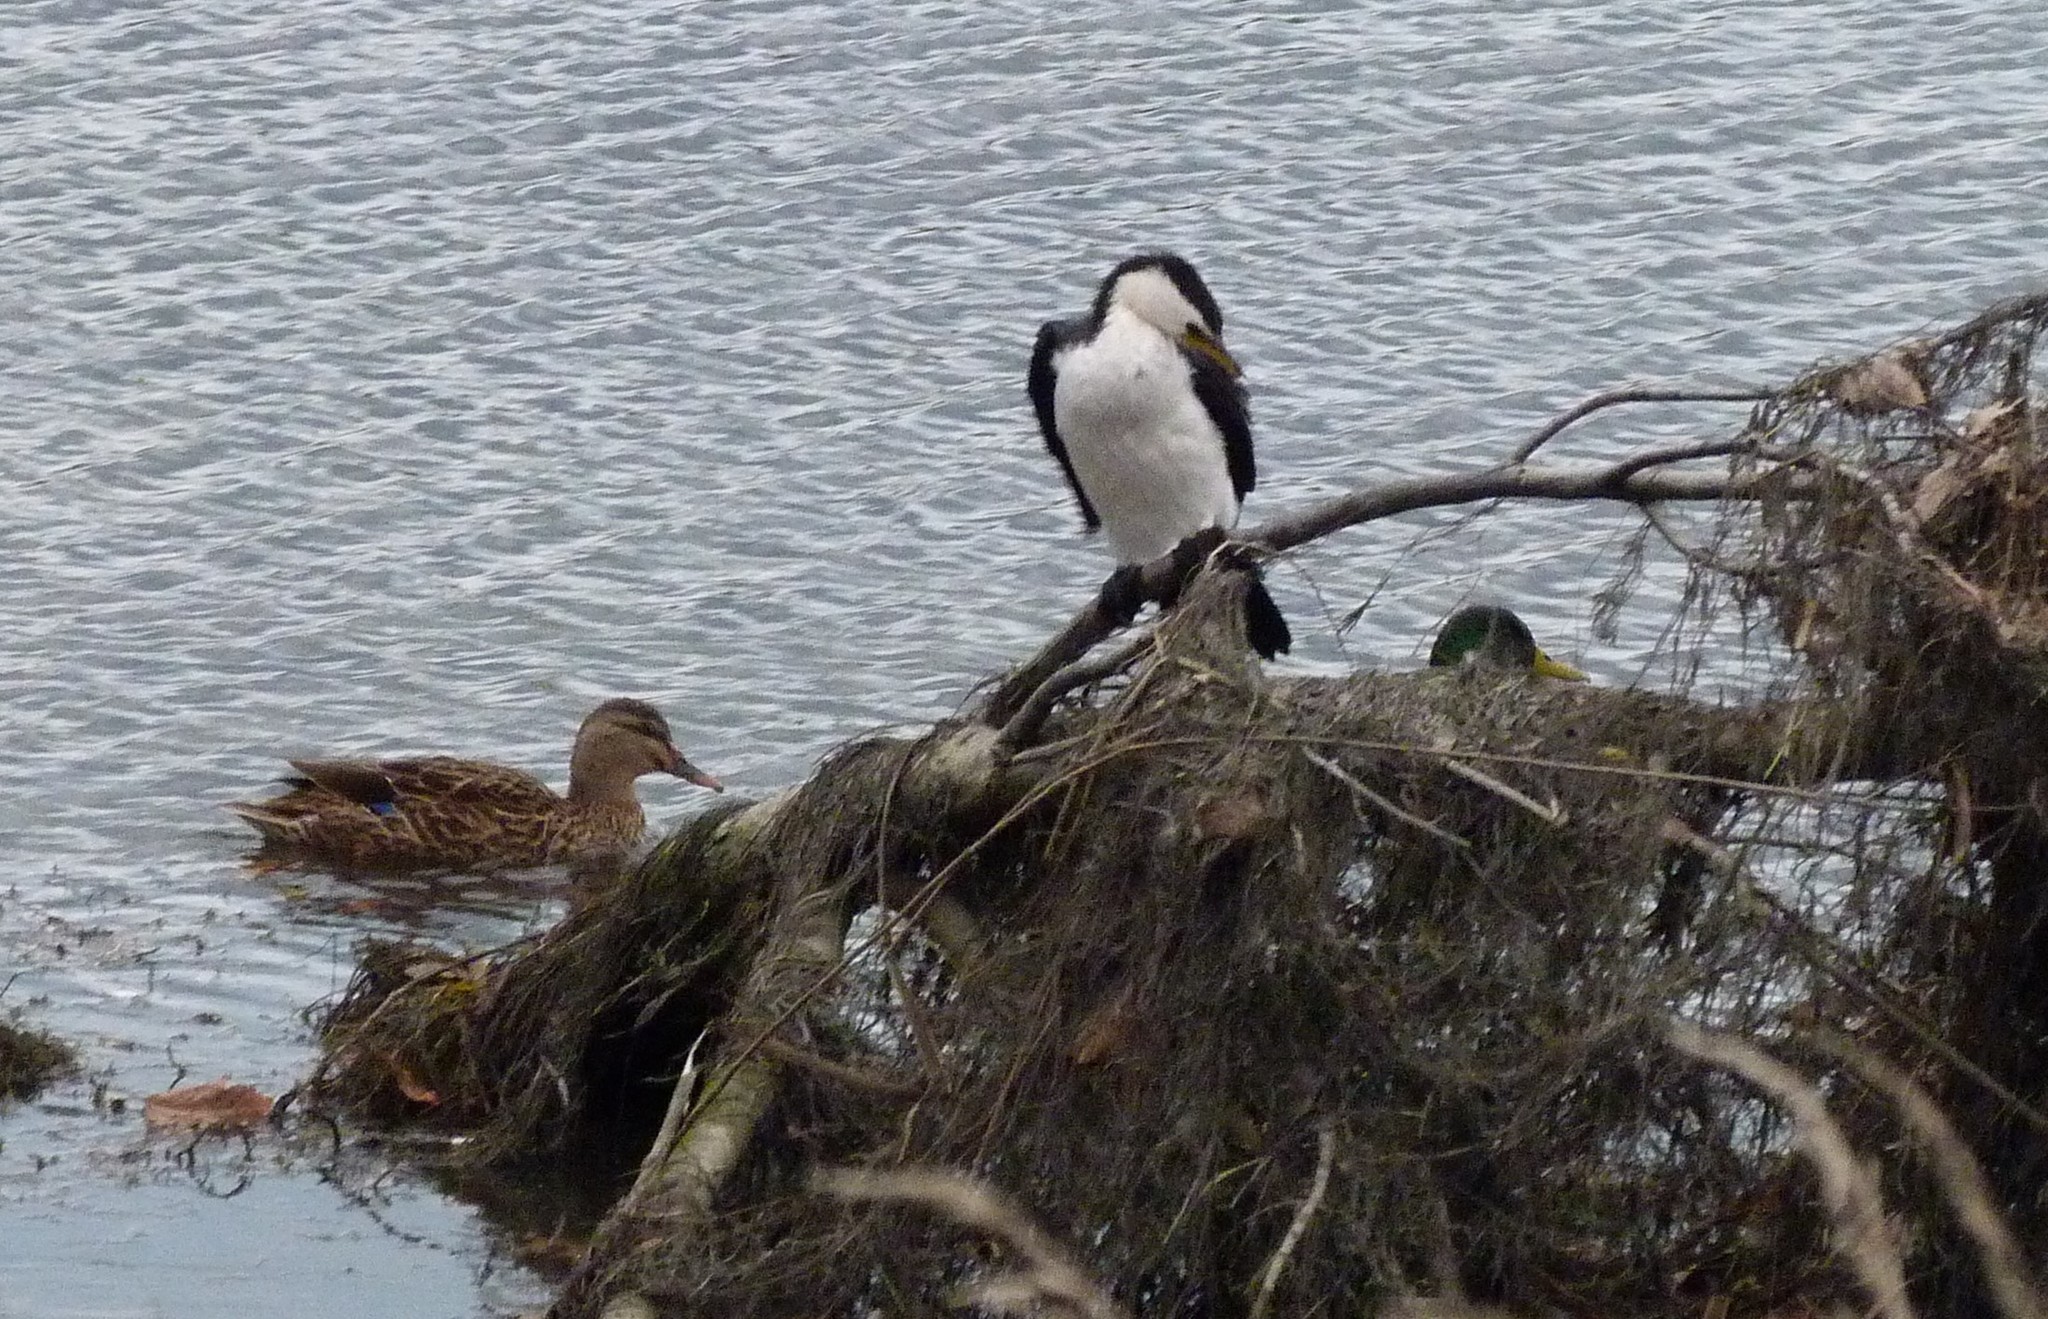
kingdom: Animalia
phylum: Chordata
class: Aves
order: Suliformes
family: Phalacrocoracidae
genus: Microcarbo
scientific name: Microcarbo melanoleucos
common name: Little pied cormorant
